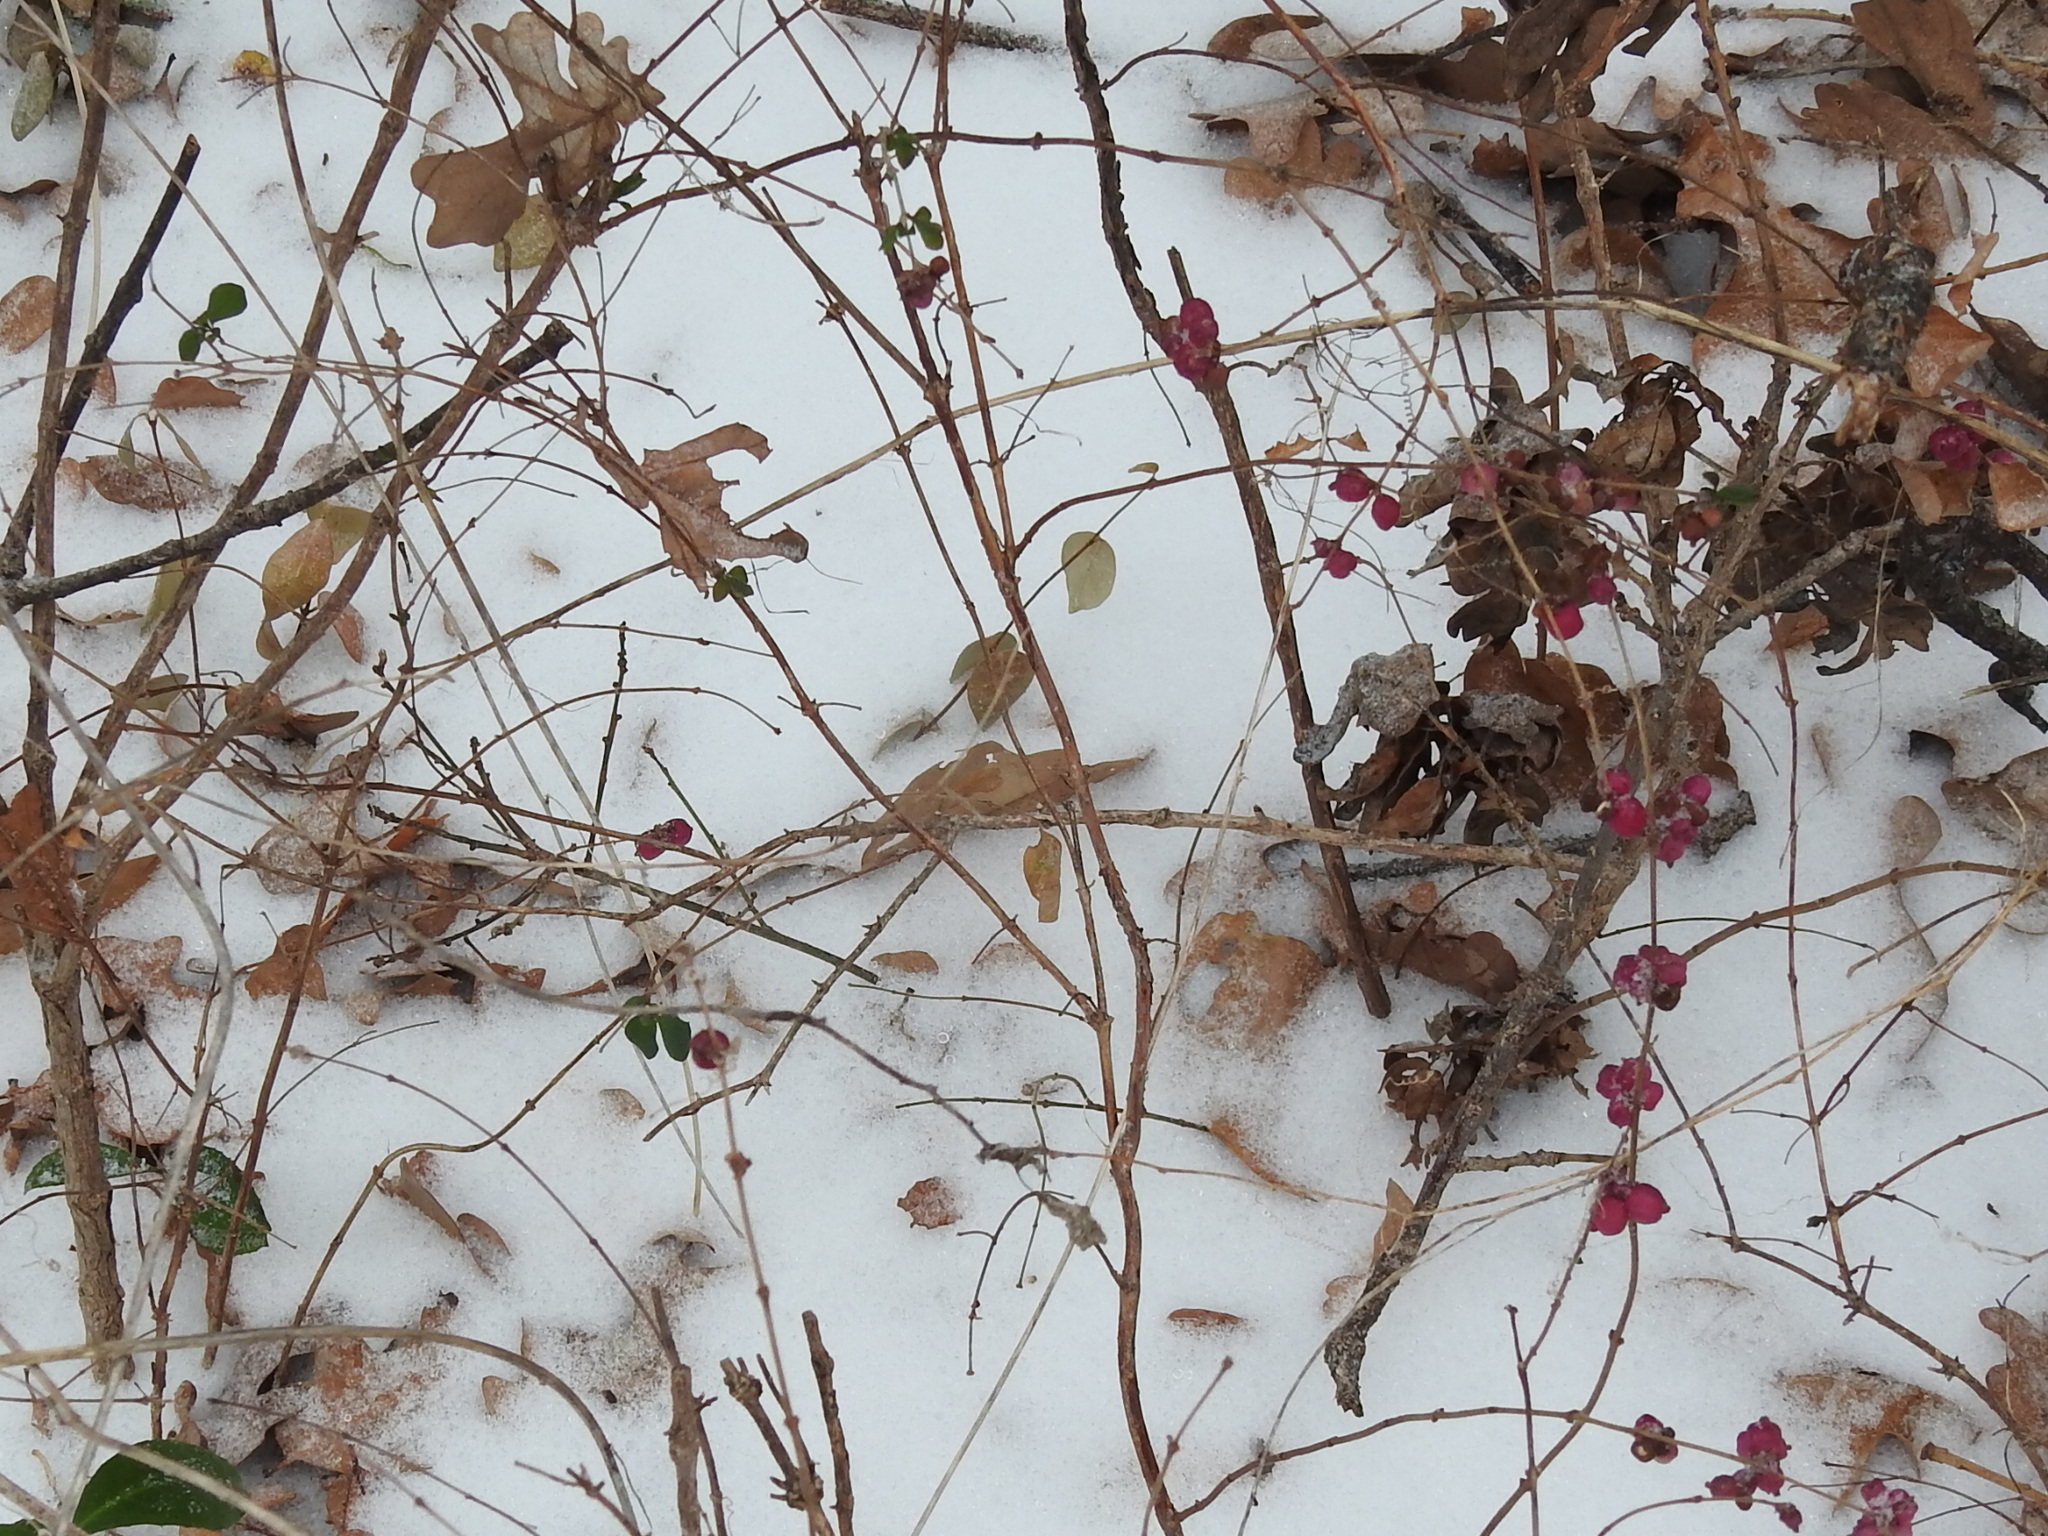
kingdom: Plantae
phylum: Tracheophyta
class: Magnoliopsida
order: Dipsacales
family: Caprifoliaceae
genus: Symphoricarpos
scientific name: Symphoricarpos orbiculatus
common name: Coralberry
